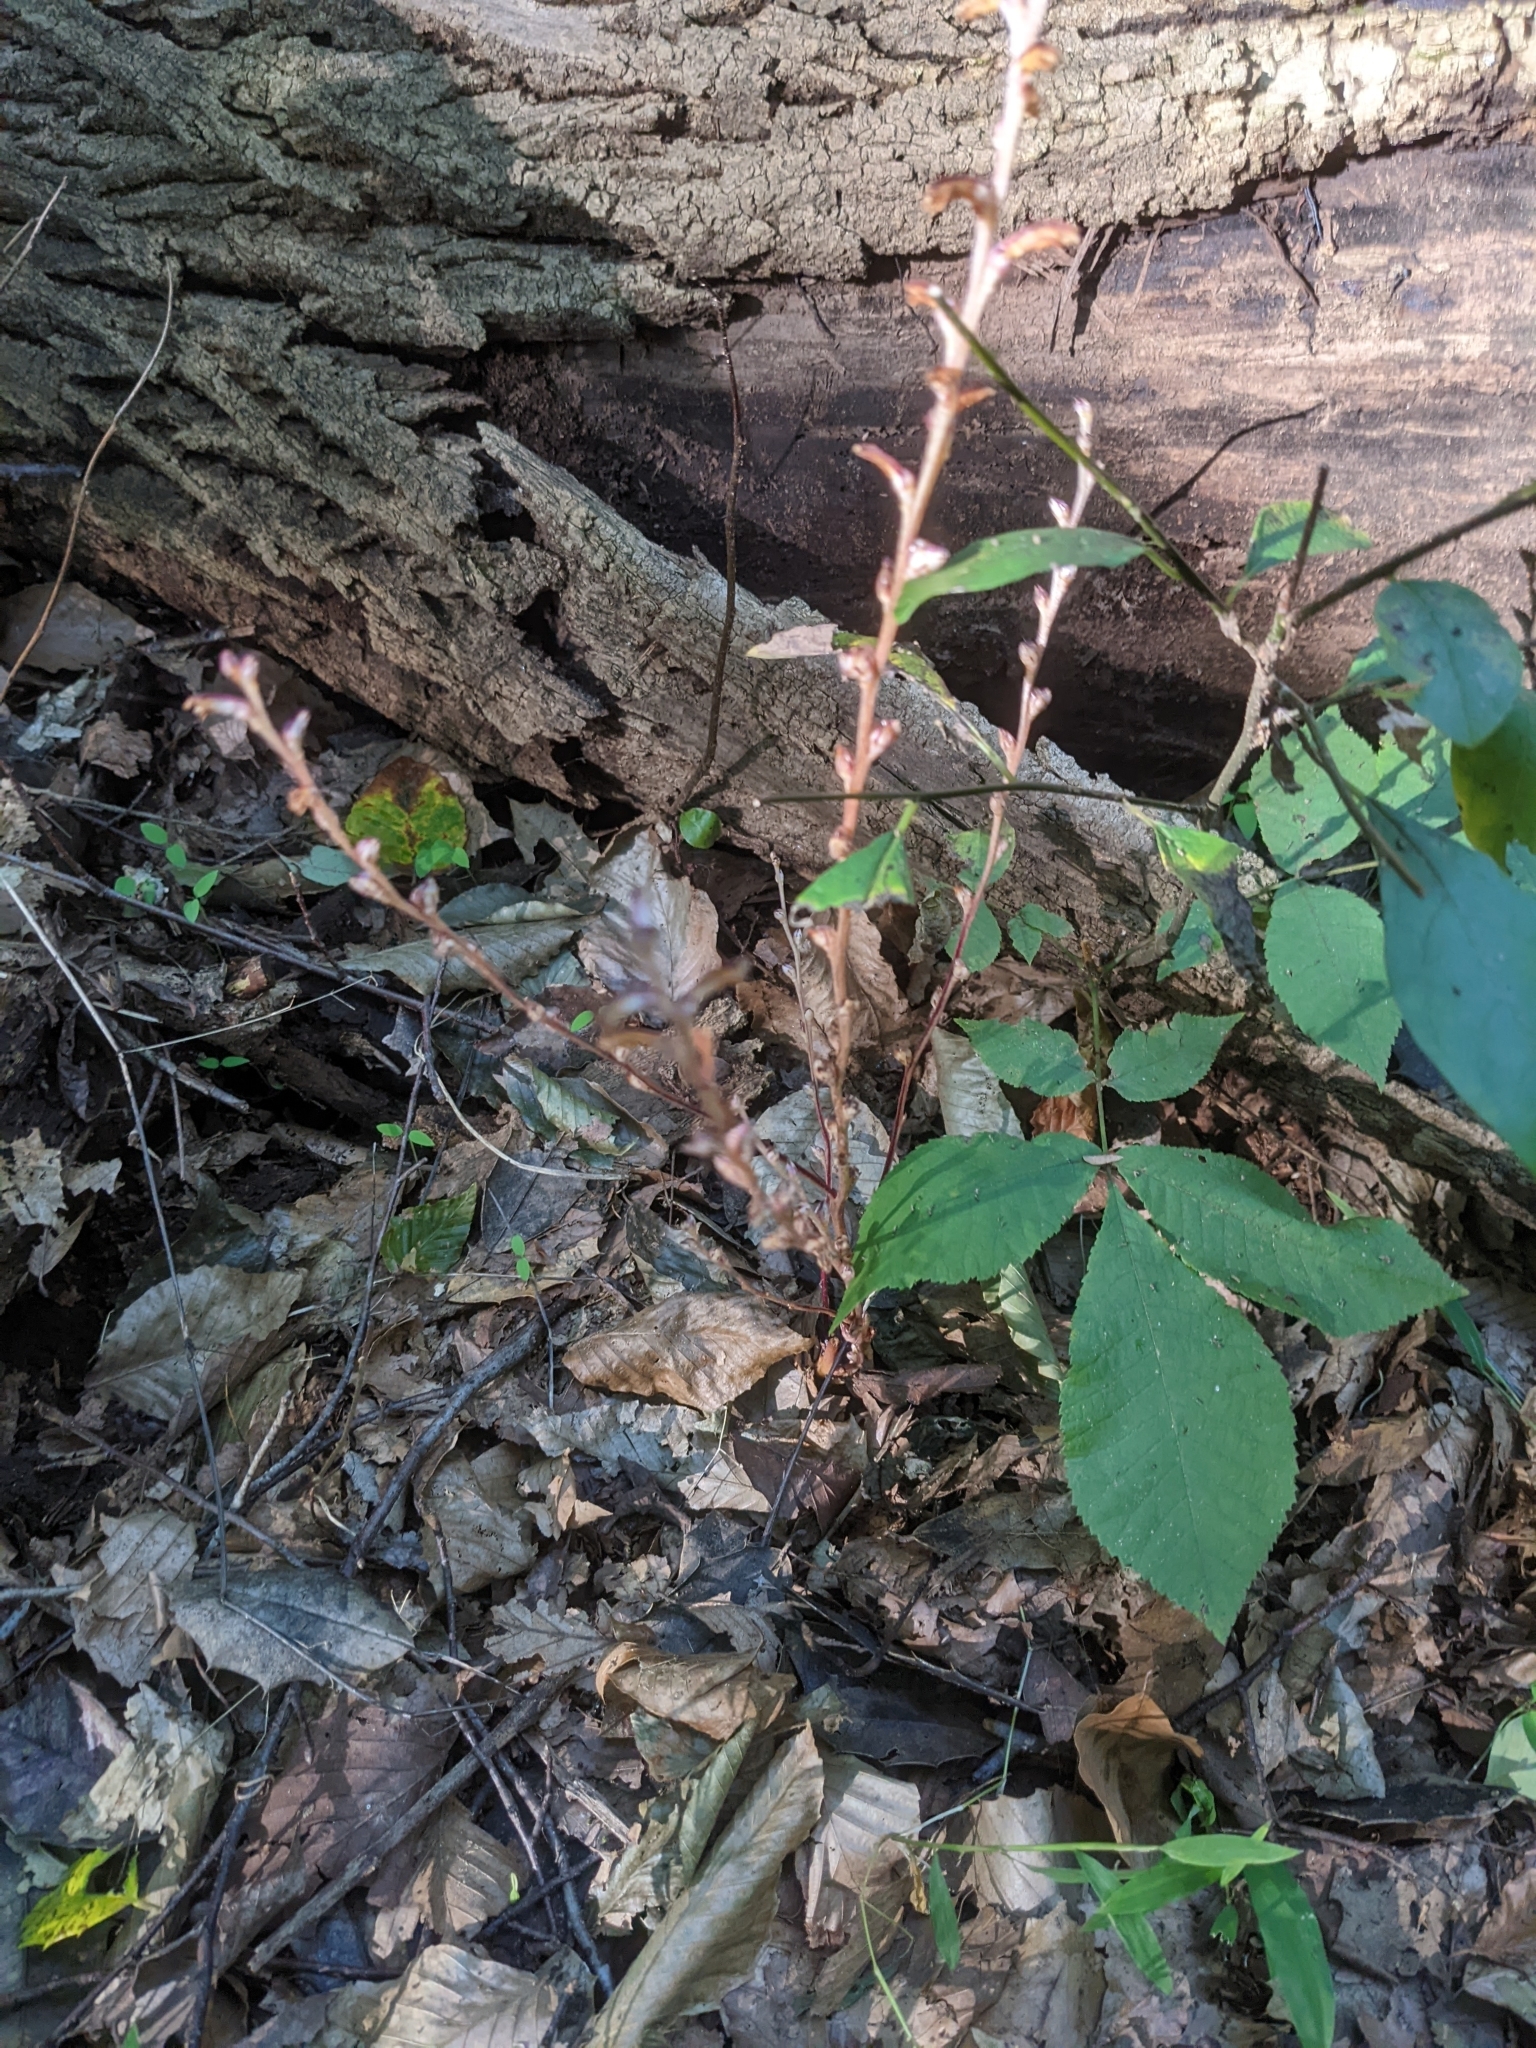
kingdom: Plantae
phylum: Tracheophyta
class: Magnoliopsida
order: Lamiales
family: Orobanchaceae
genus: Epifagus
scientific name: Epifagus virginiana
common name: Beechdrops
